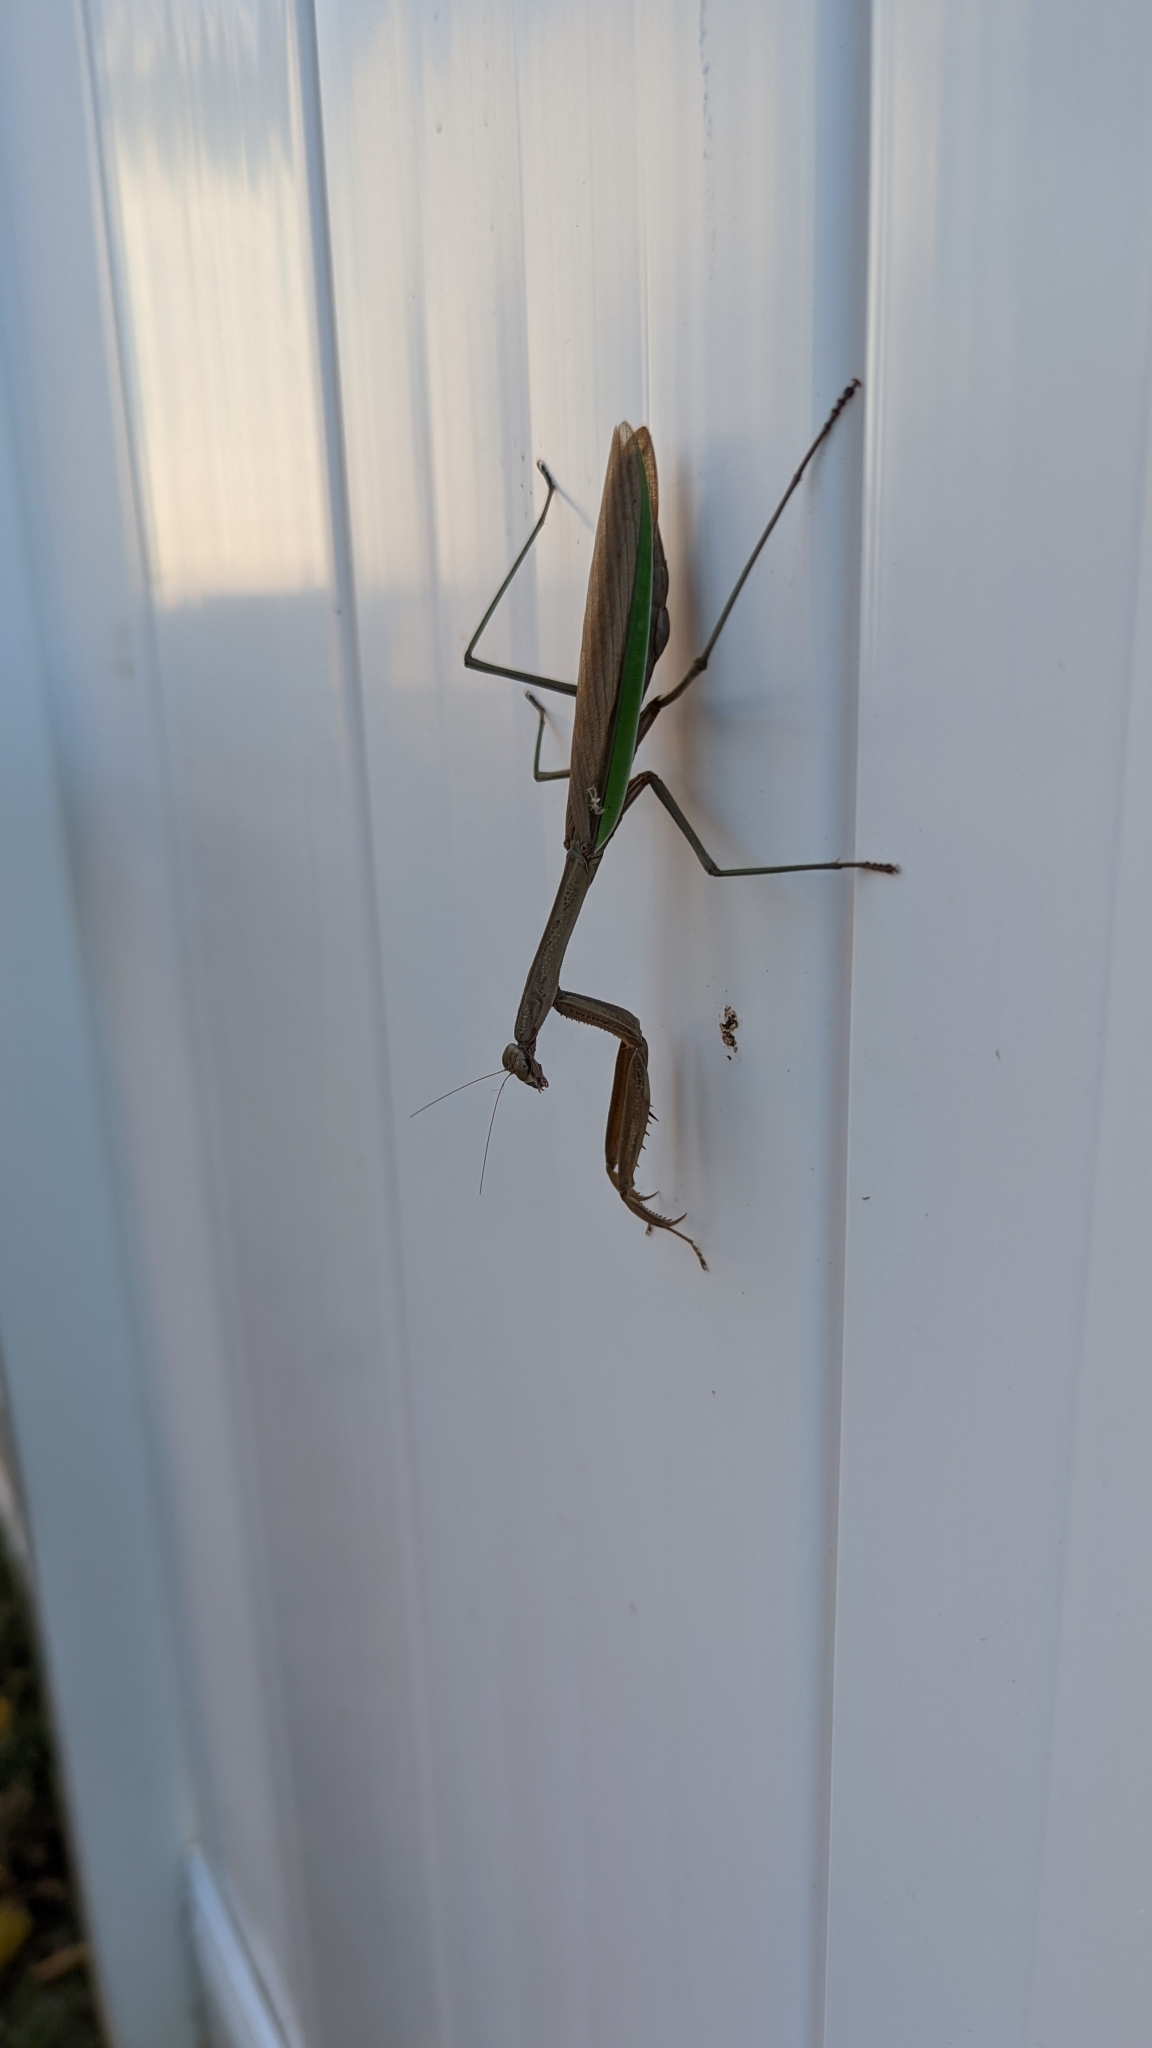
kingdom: Animalia
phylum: Arthropoda
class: Insecta
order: Mantodea
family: Mantidae
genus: Tenodera
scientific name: Tenodera sinensis
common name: Chinese mantis
